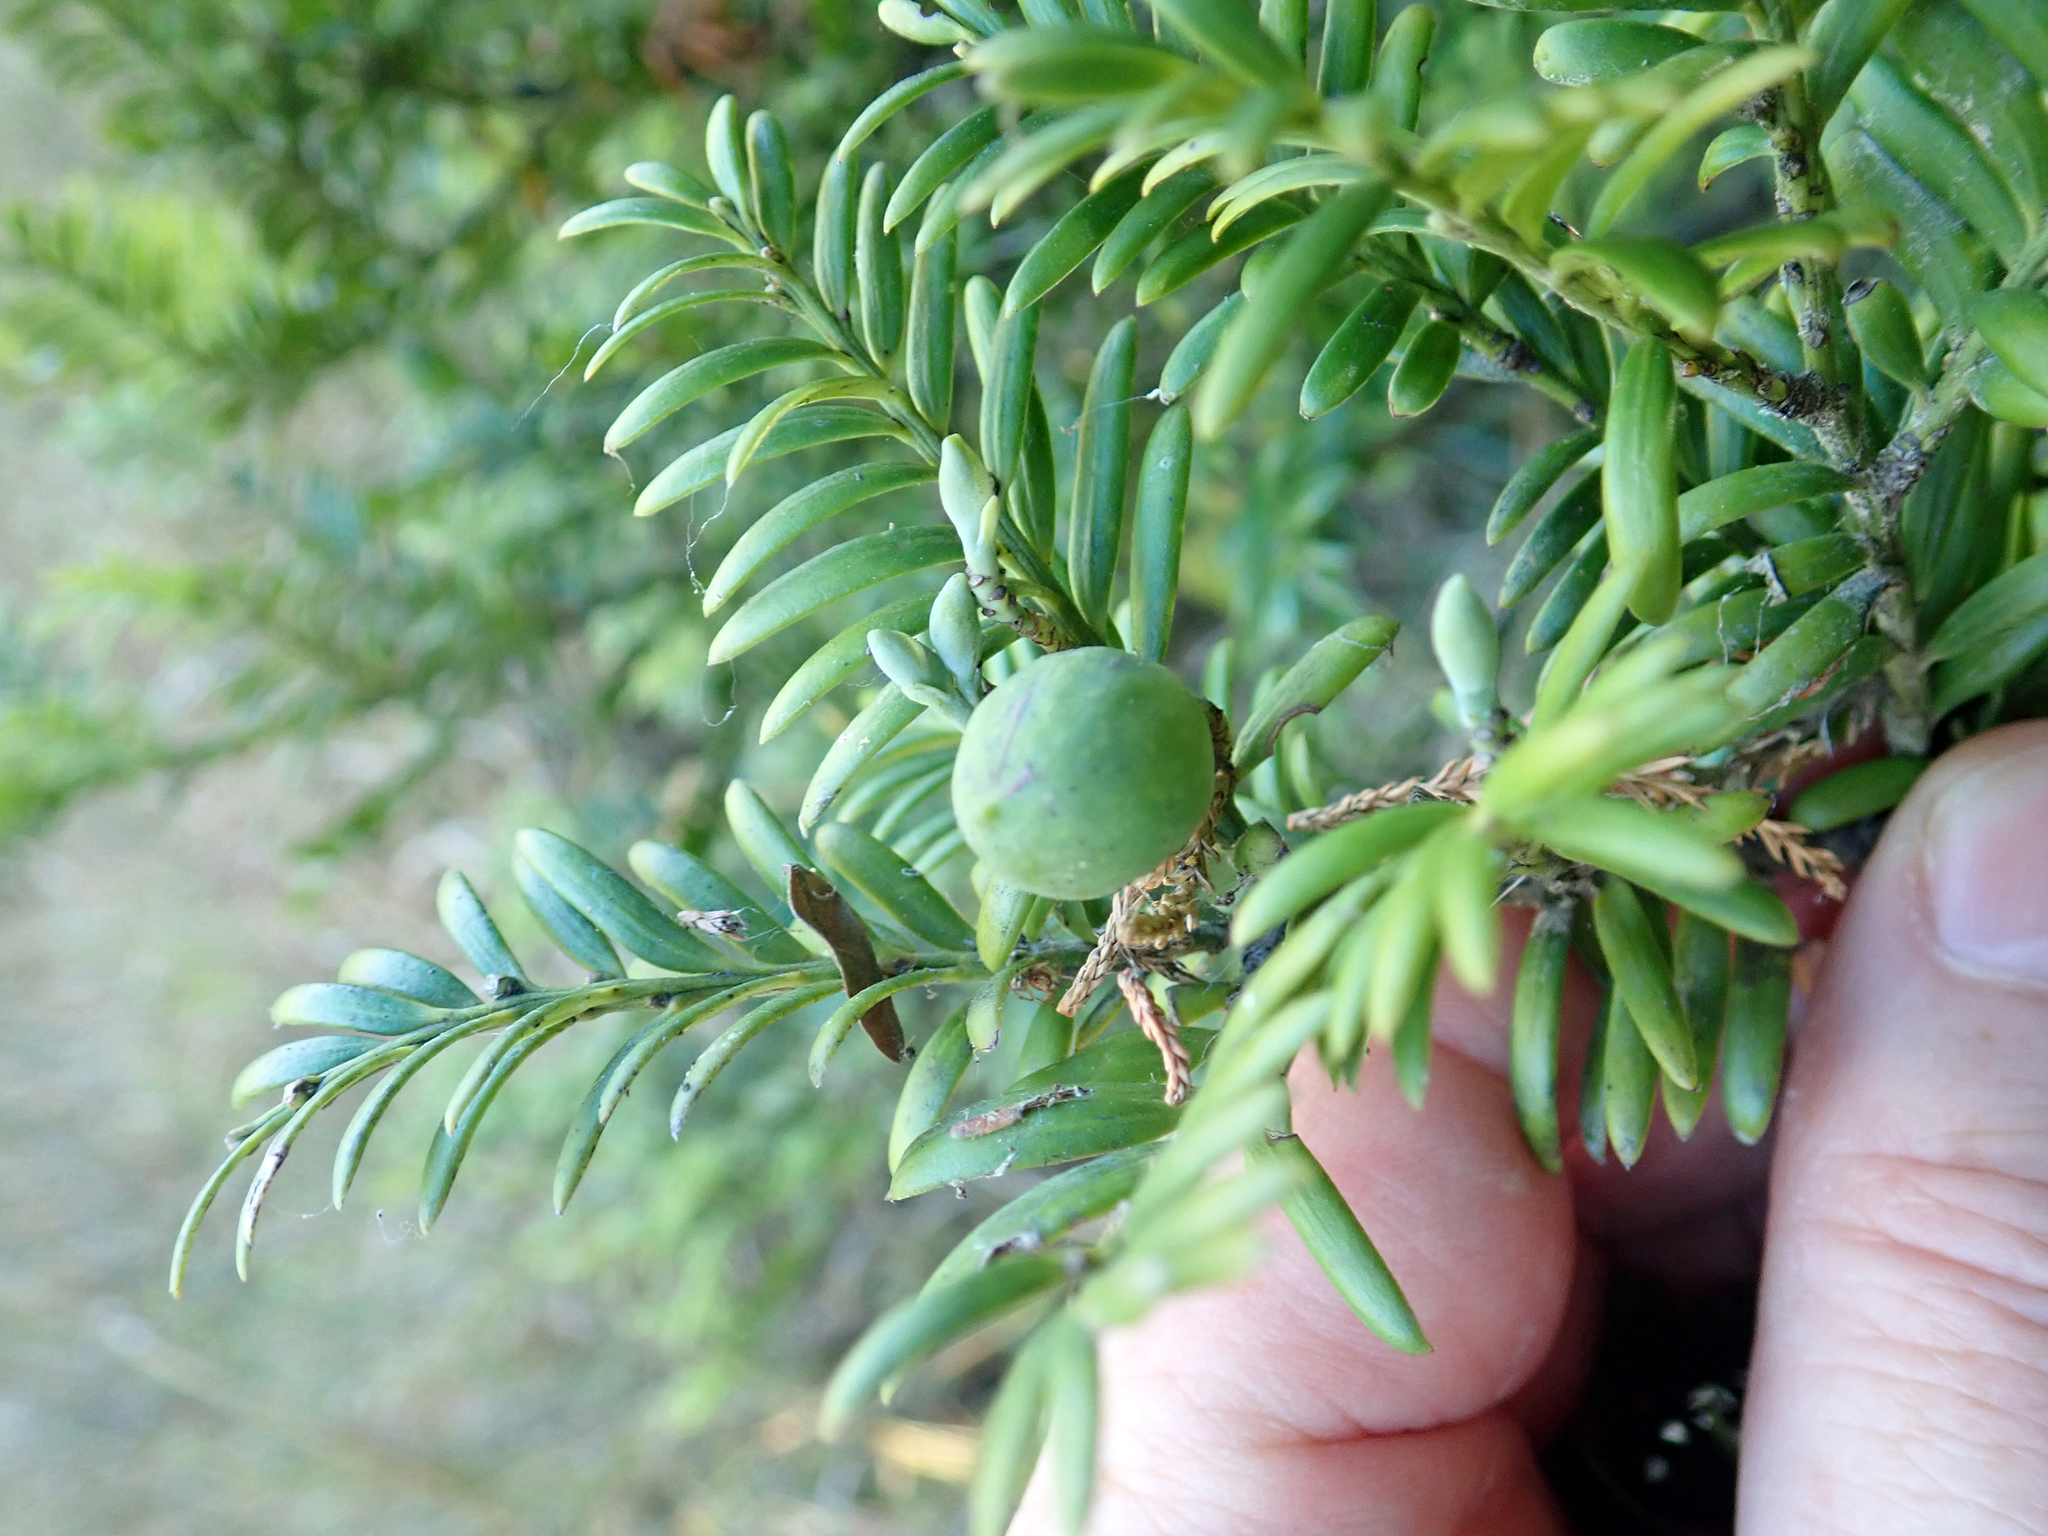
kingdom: Plantae
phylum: Tracheophyta
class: Pinopsida
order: Pinales
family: Podocarpaceae
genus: Prumnopitys
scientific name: Prumnopitys ferruginea
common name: Brown pine
